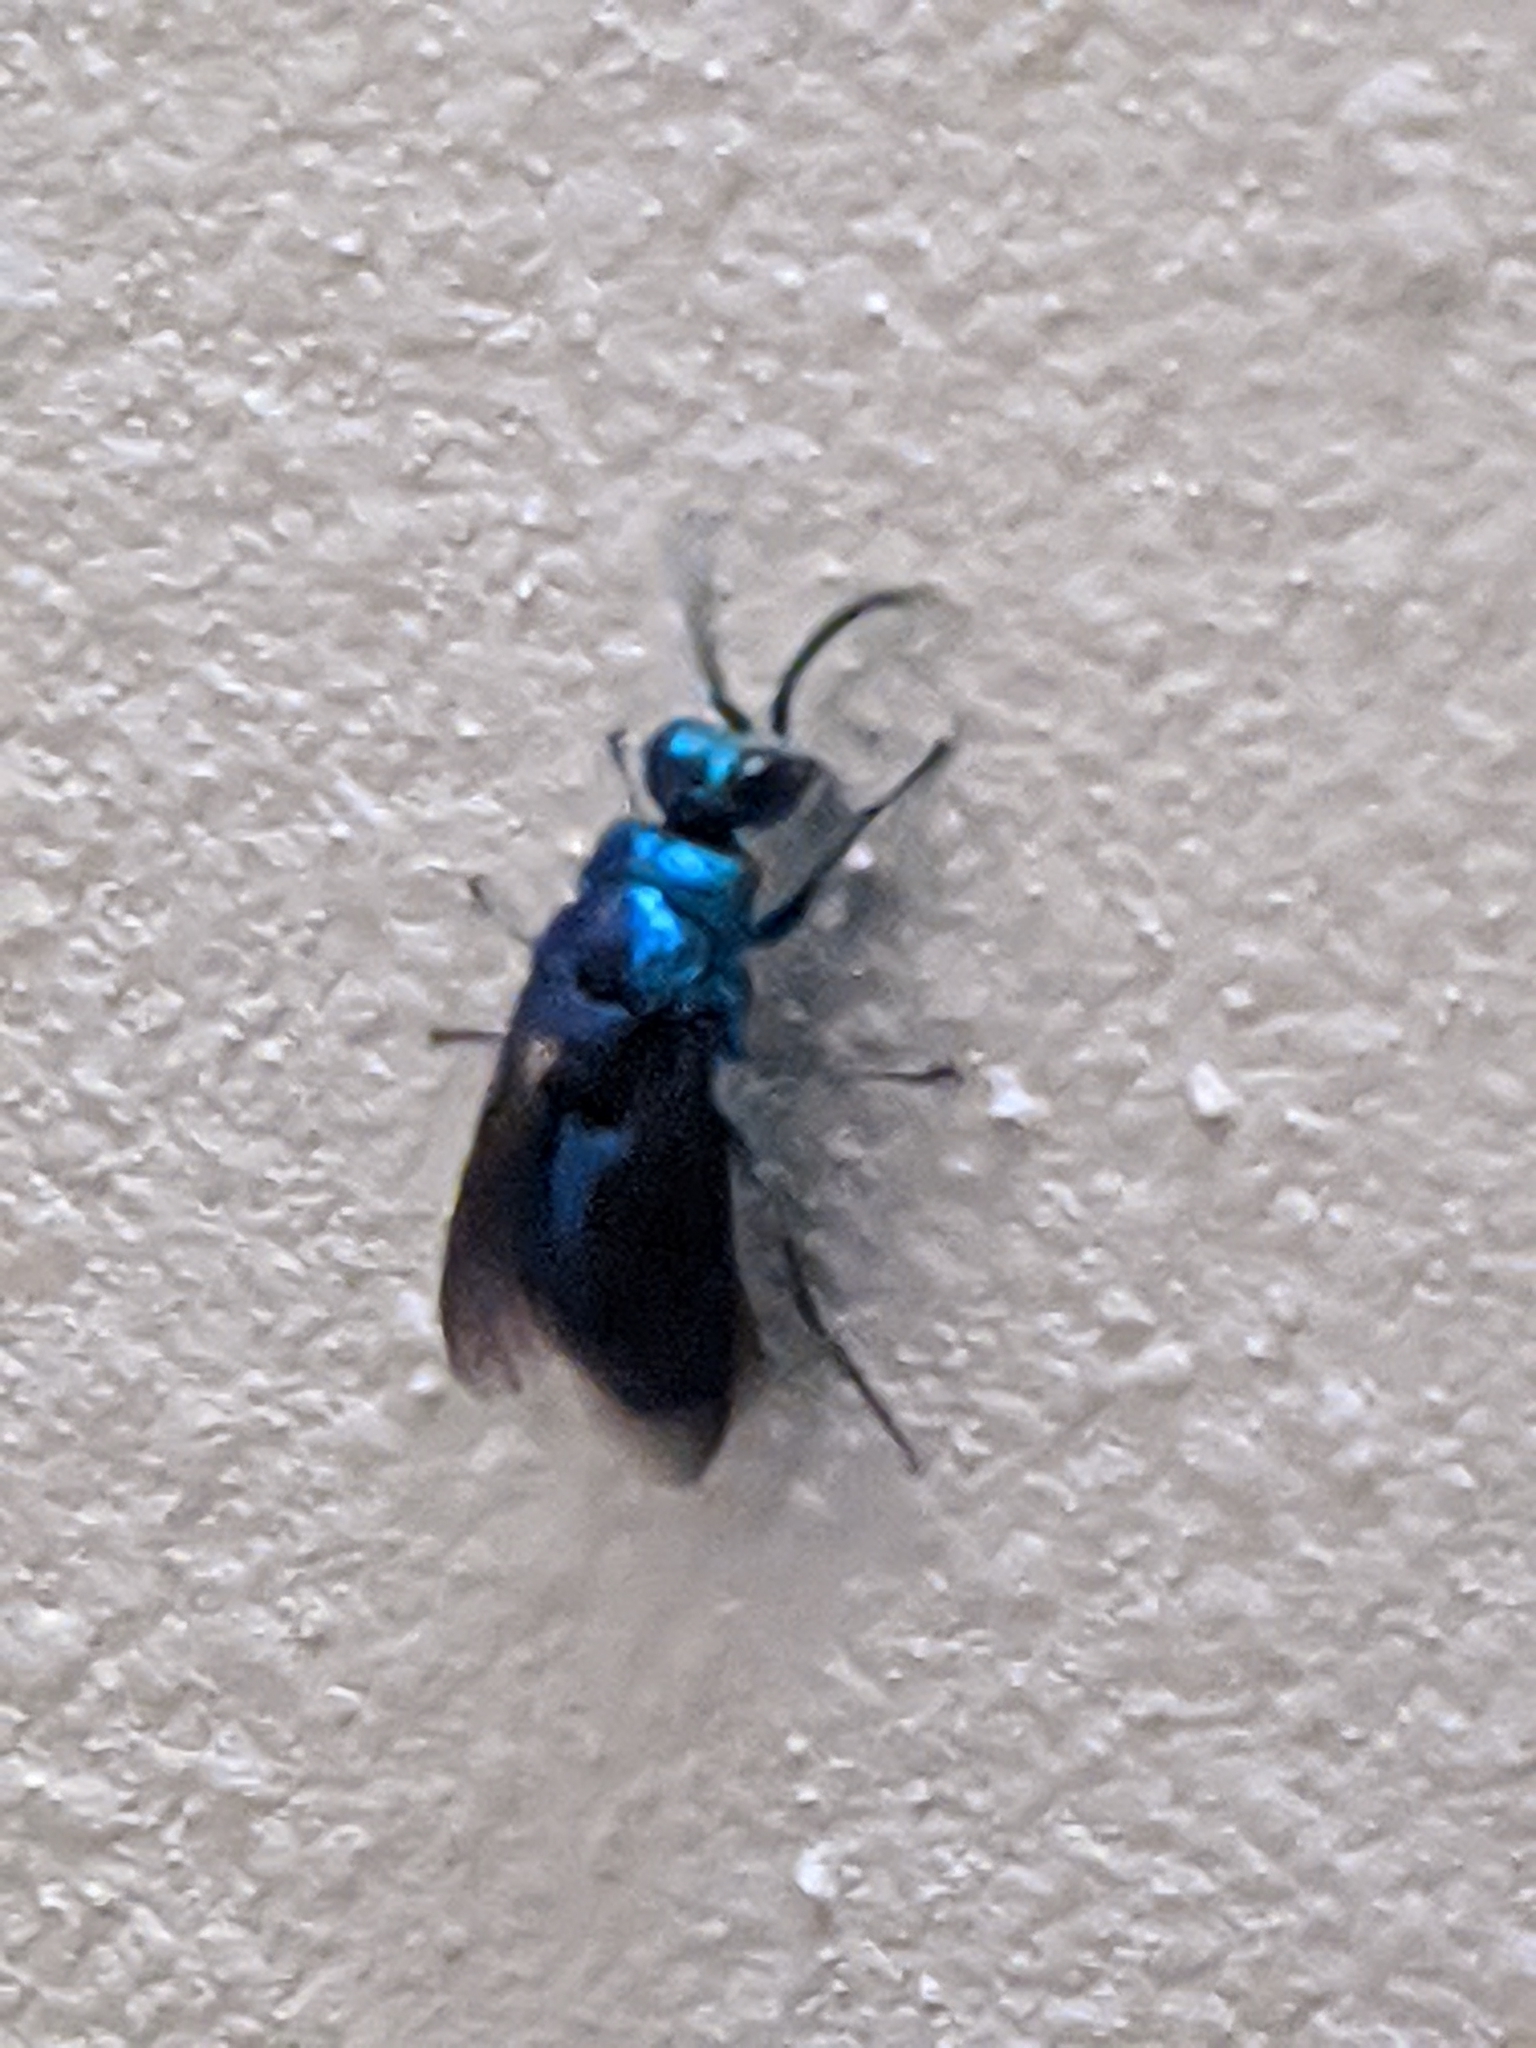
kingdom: Animalia
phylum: Arthropoda
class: Insecta
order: Hymenoptera
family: Chrysididae
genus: Chrysis
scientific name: Chrysis angolensis
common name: Cuckoo wasp
